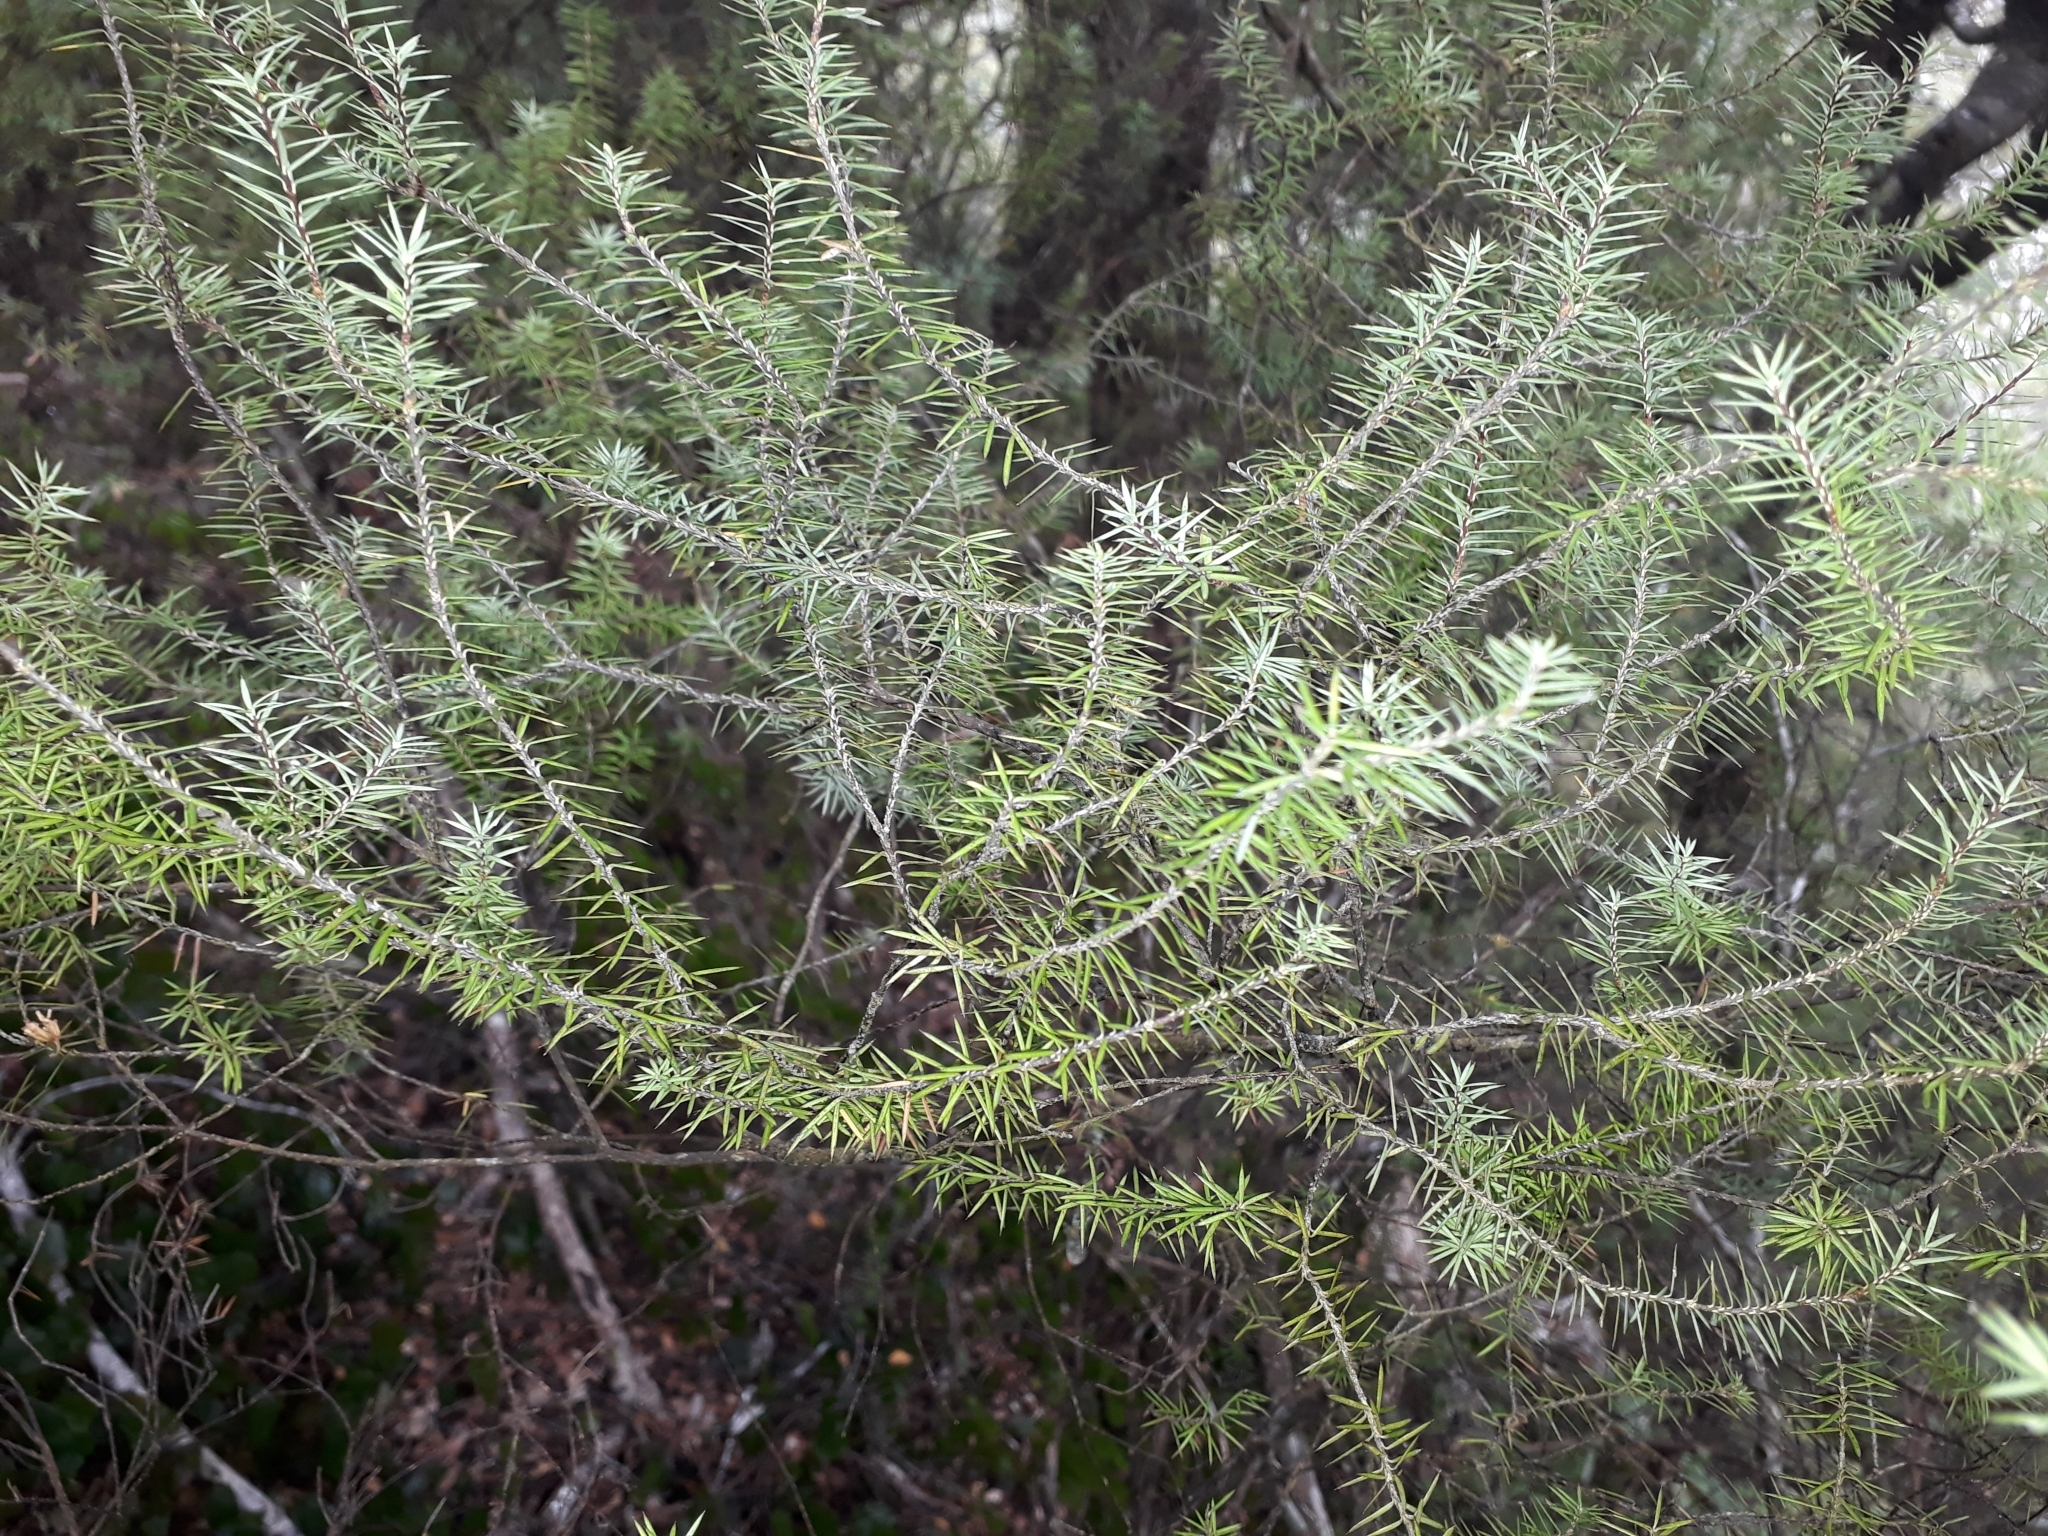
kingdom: Plantae
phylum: Tracheophyta
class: Magnoliopsida
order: Ericales
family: Ericaceae
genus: Leptecophylla
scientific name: Leptecophylla juniperina
